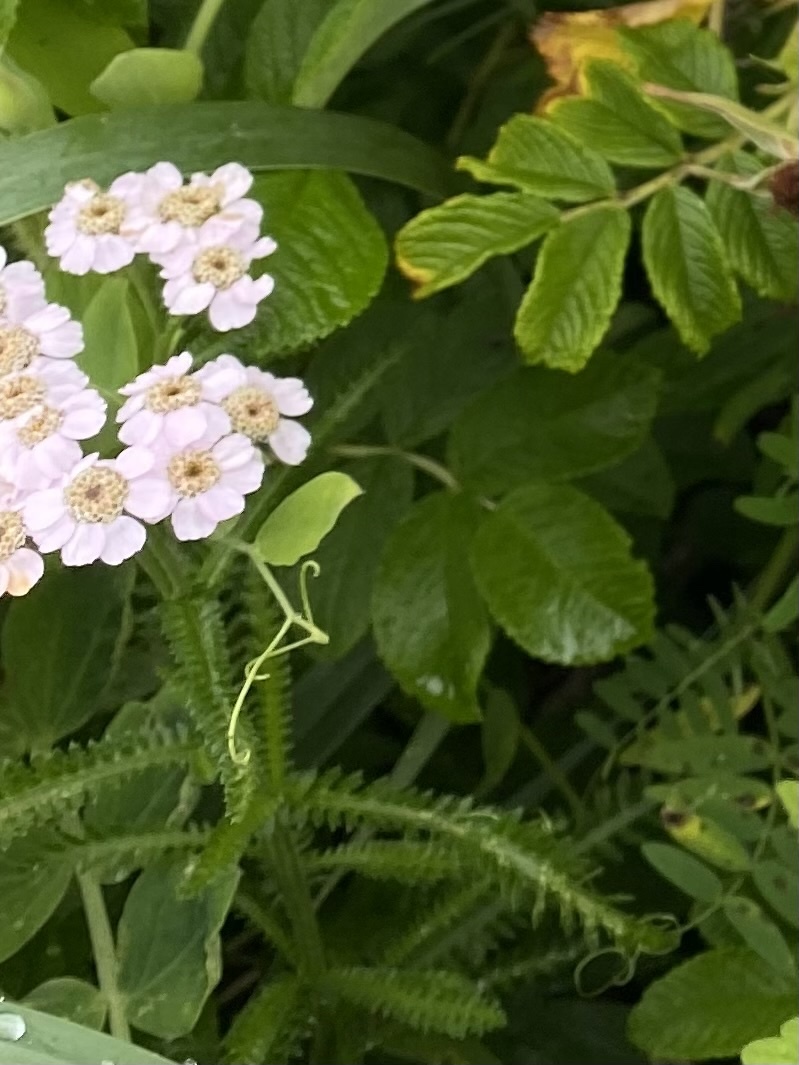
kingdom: Plantae
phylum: Tracheophyta
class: Magnoliopsida
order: Asterales
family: Asteraceae
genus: Achillea
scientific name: Achillea alpina
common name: Siberian yarrow
